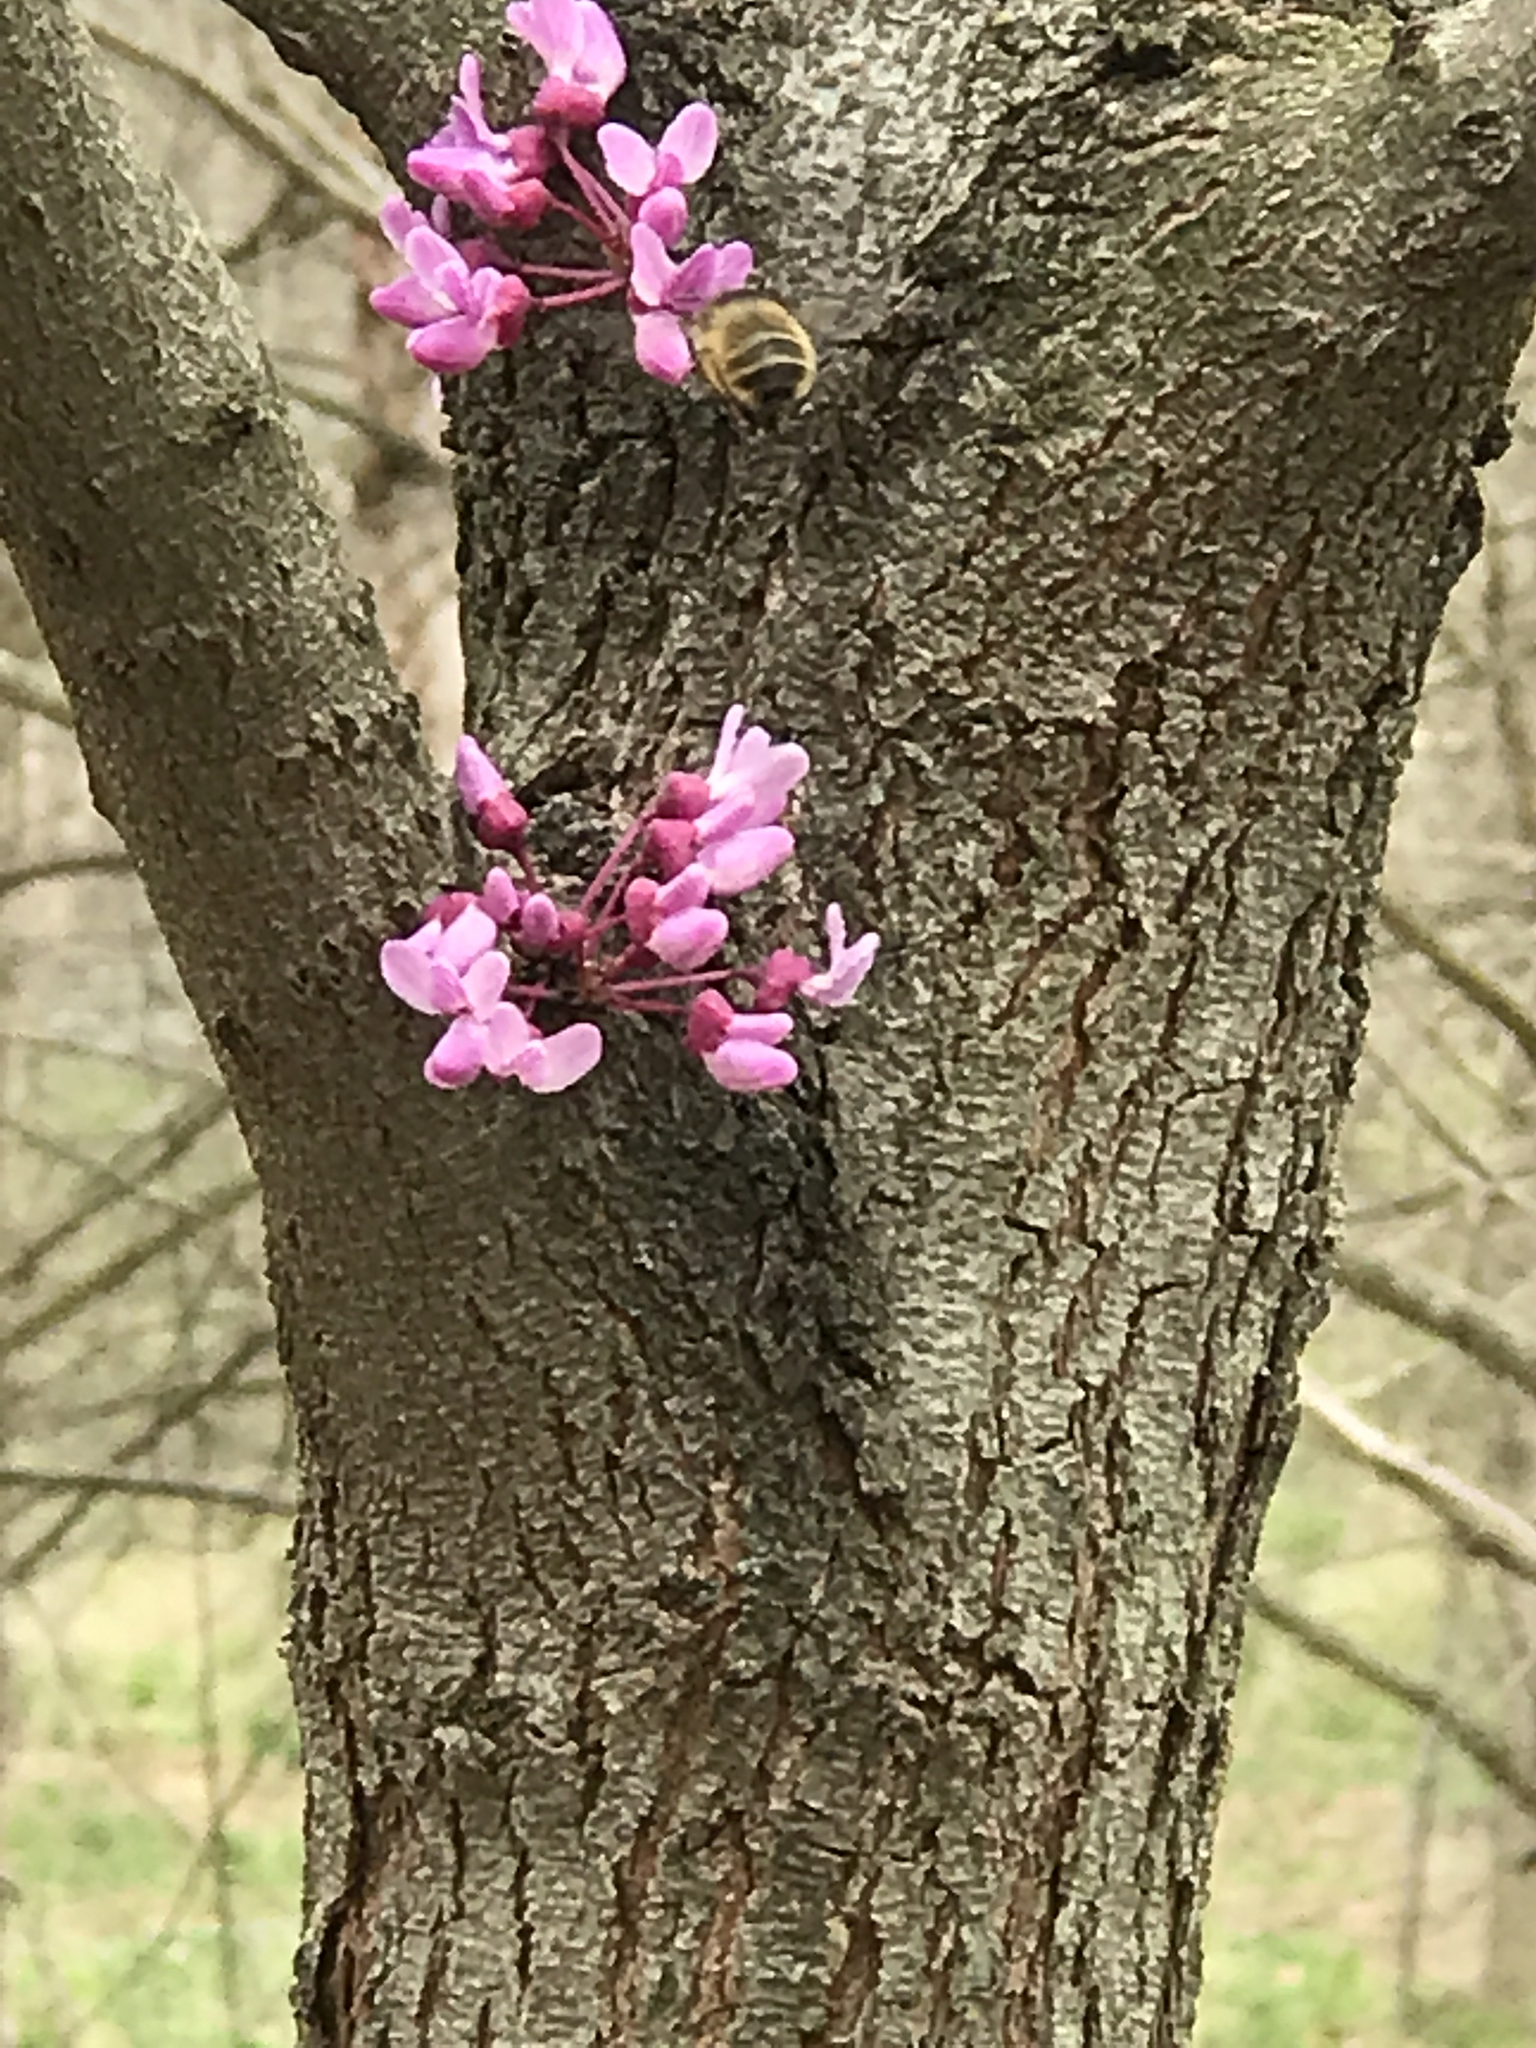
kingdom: Animalia
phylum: Arthropoda
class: Insecta
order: Hymenoptera
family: Apidae
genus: Anthophora
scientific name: Anthophora villosula
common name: Asian shaggy digger
